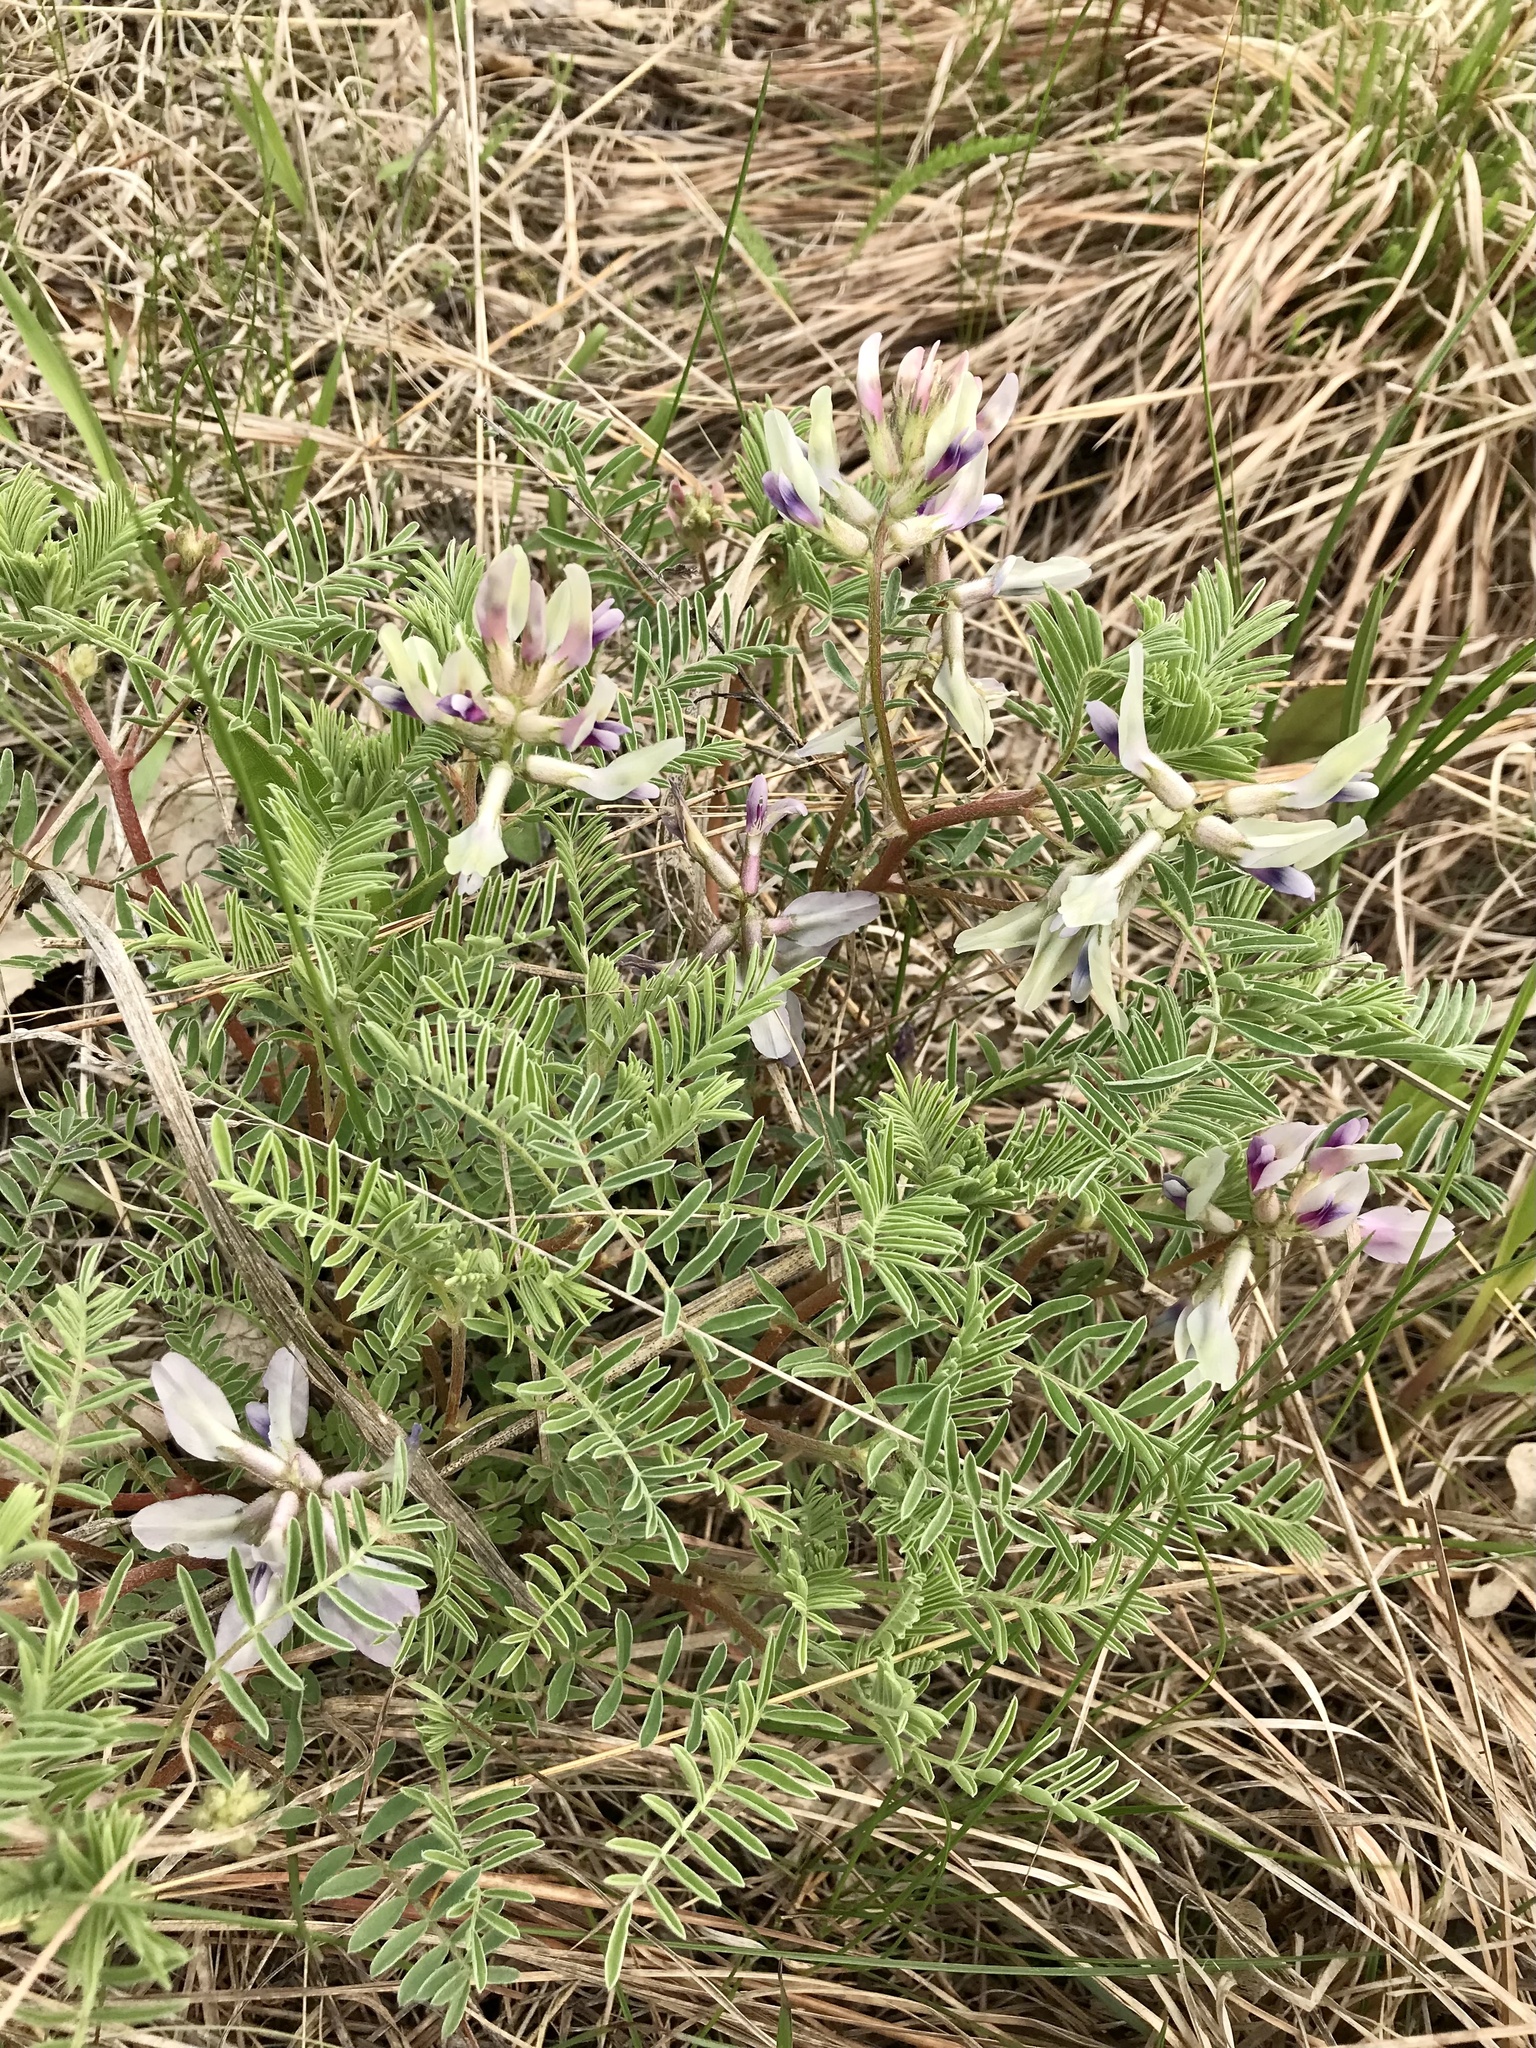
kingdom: Plantae
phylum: Tracheophyta
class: Magnoliopsida
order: Fabales
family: Fabaceae
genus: Astragalus
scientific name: Astragalus crassicarpus
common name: Ground-plum milk-vetch
